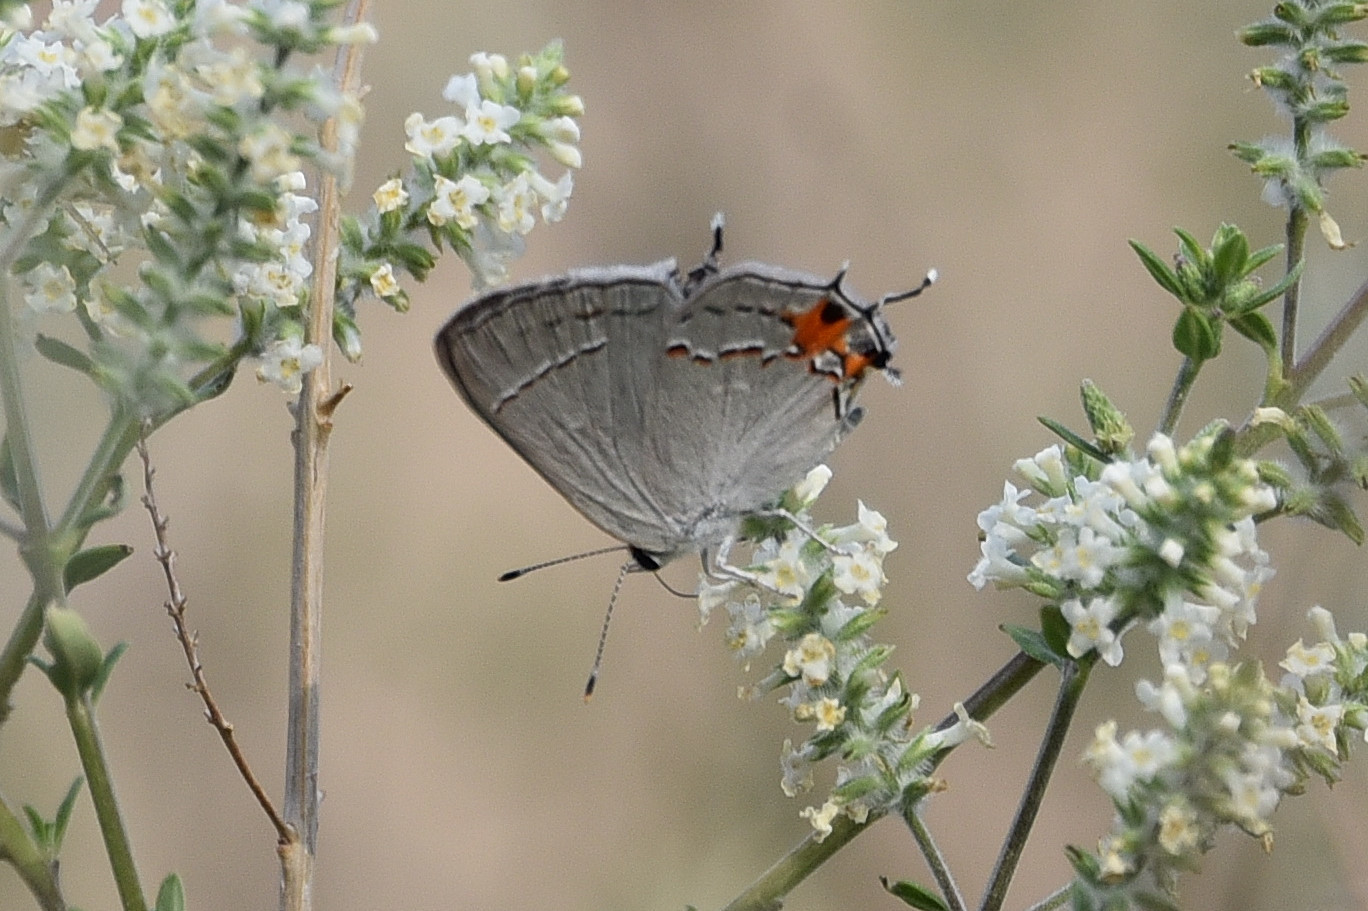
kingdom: Animalia
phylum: Arthropoda
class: Insecta
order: Lepidoptera
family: Lycaenidae
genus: Strymon
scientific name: Strymon melinus
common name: Gray hairstreak
